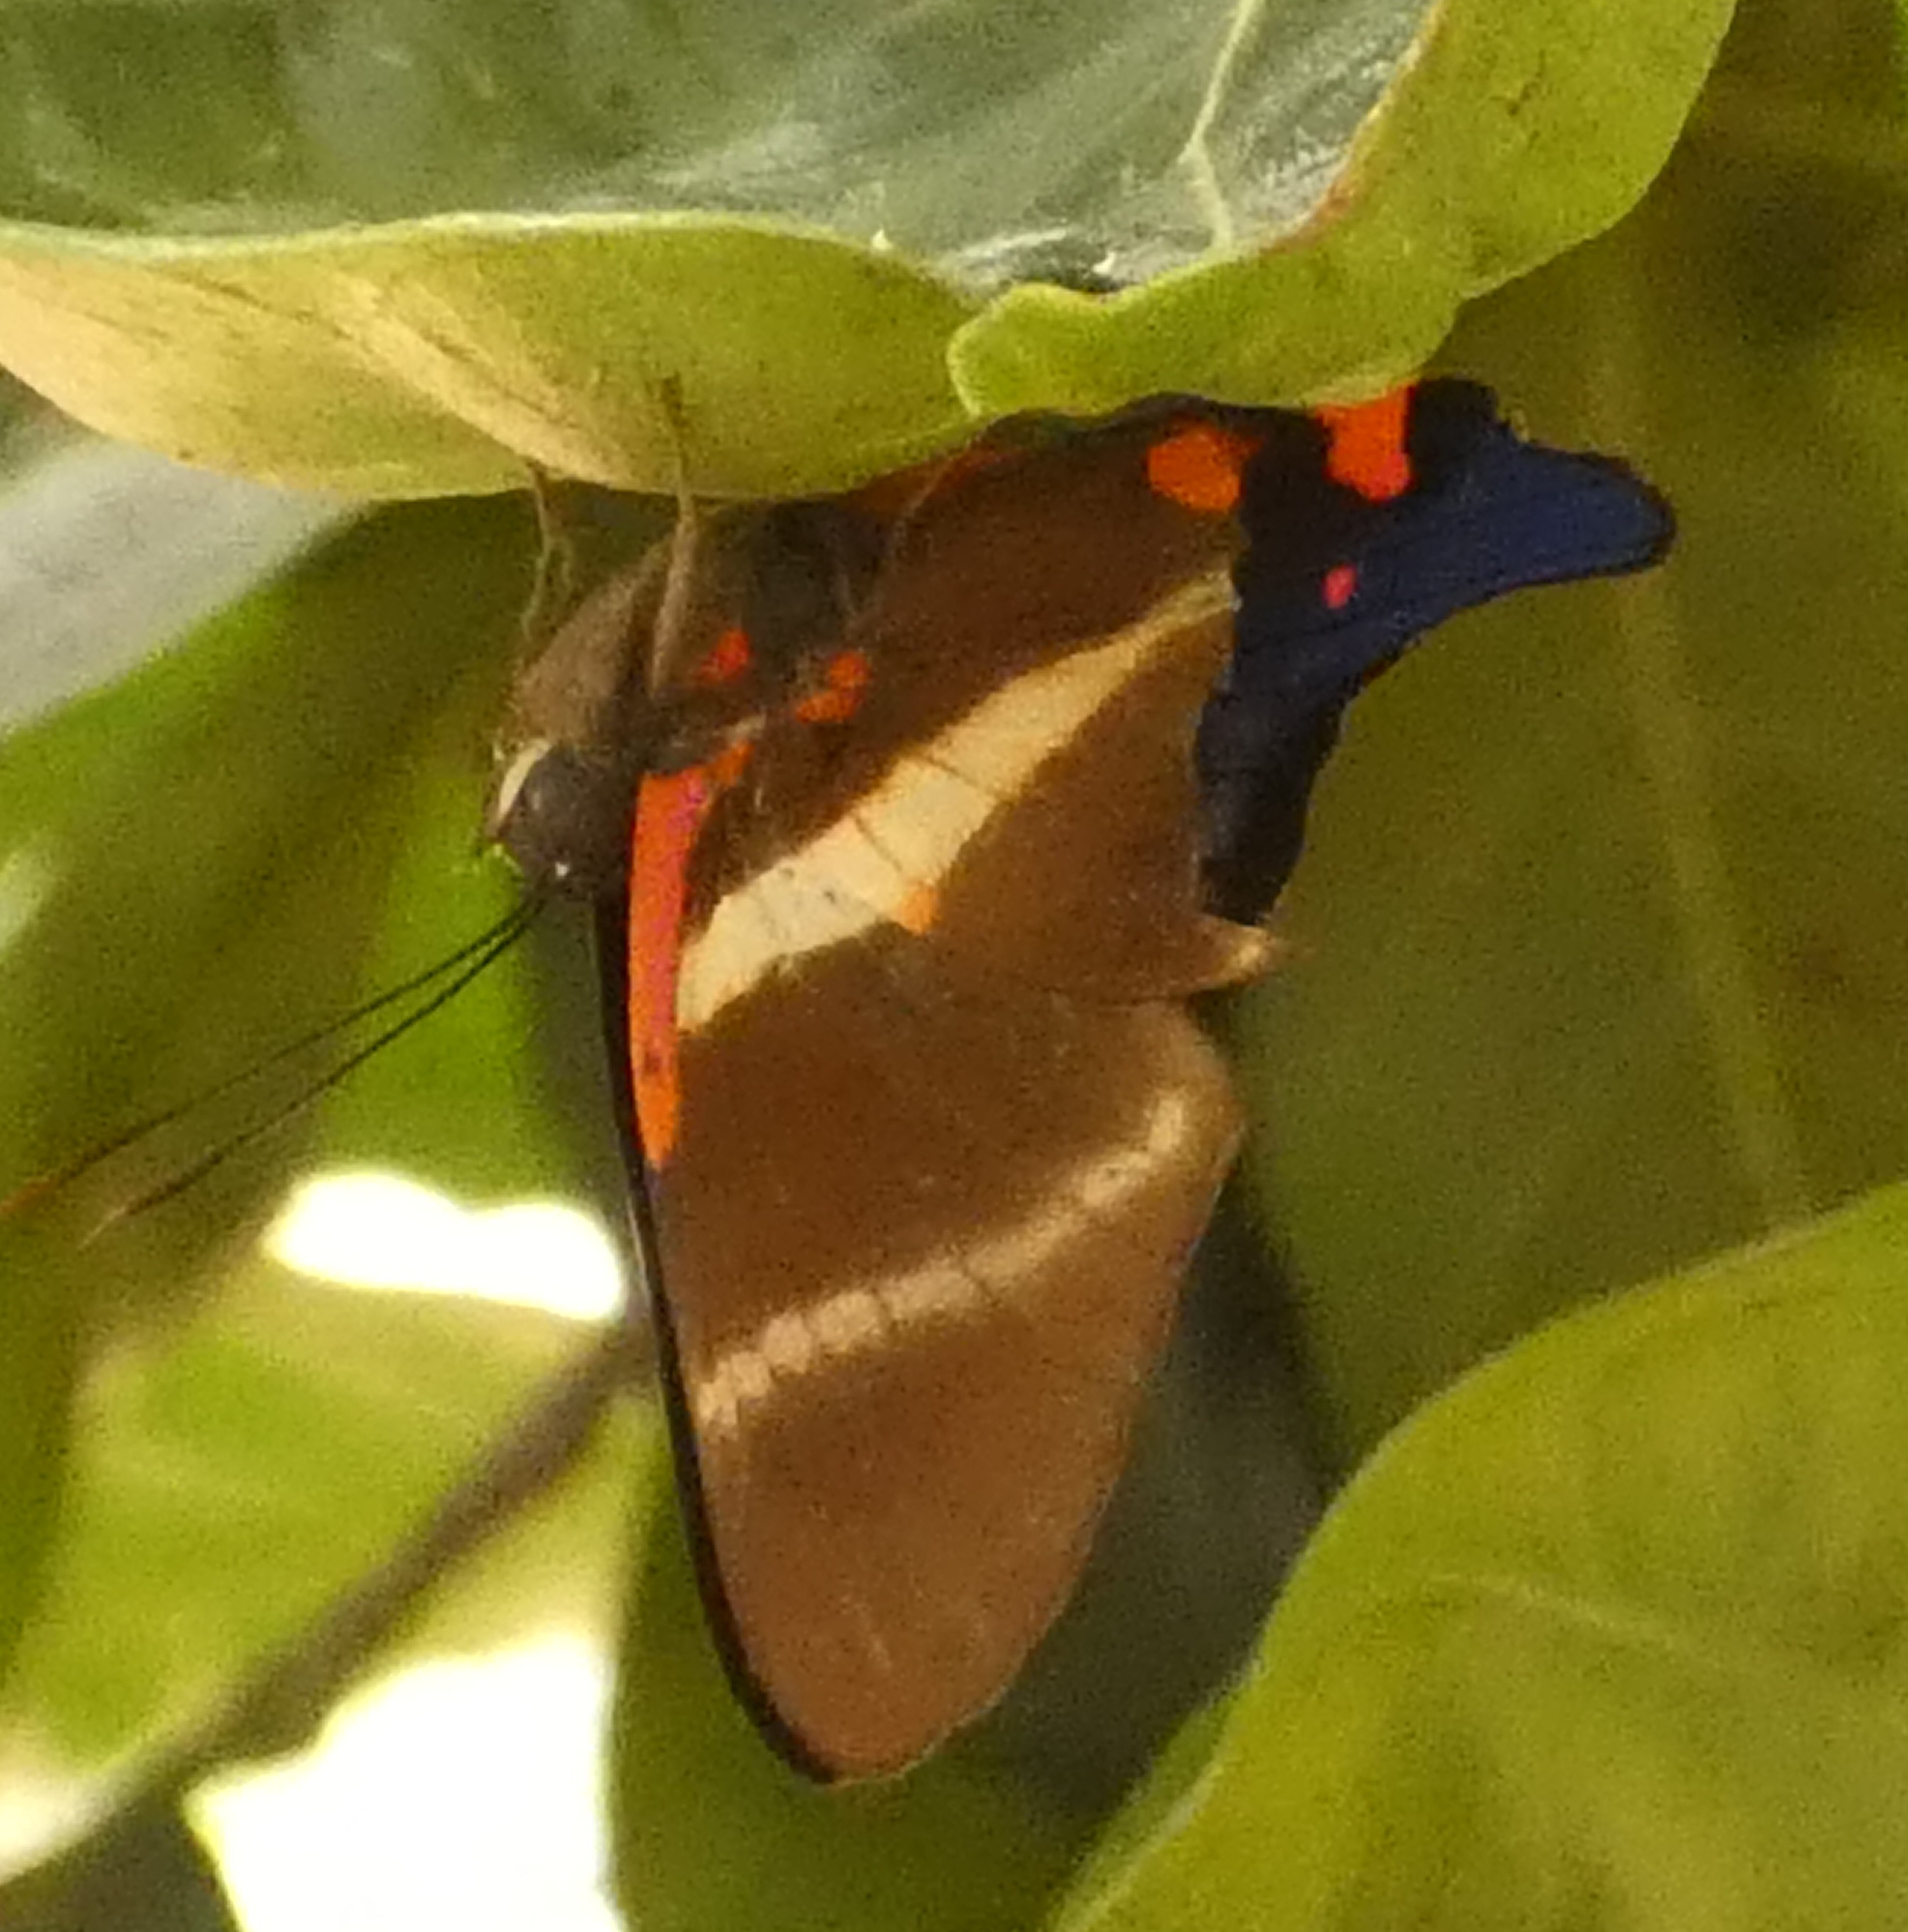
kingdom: Animalia
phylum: Arthropoda
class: Insecta
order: Lepidoptera
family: Riodinidae
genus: Rhetus
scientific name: Rhetus periander
